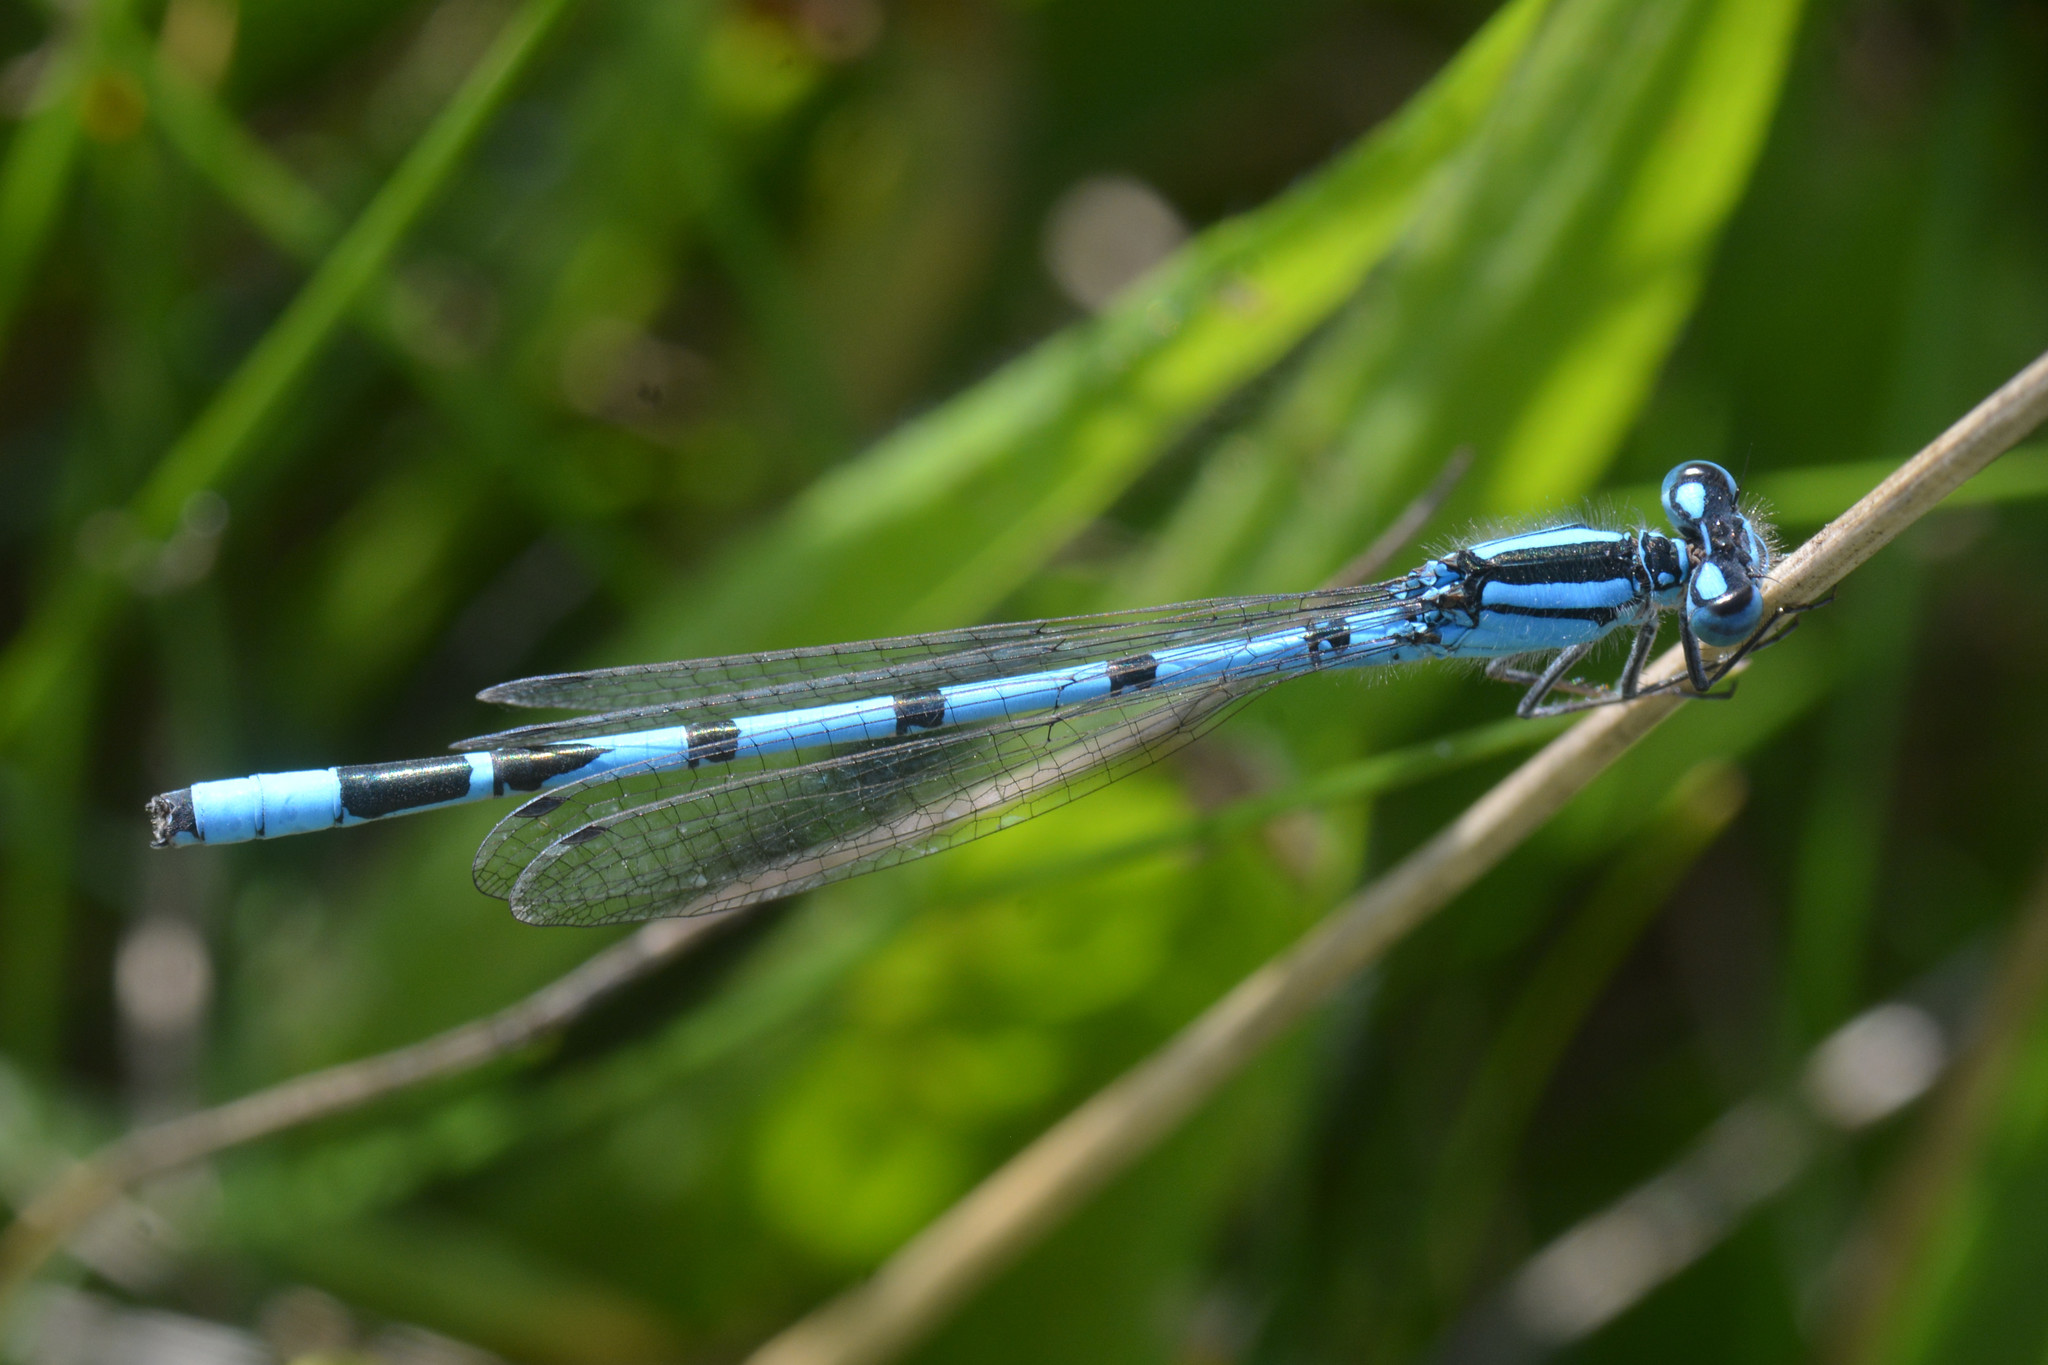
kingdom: Animalia
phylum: Arthropoda
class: Insecta
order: Odonata
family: Coenagrionidae
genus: Enallagma
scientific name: Enallagma cyathigerum
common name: Common blue damselfly
